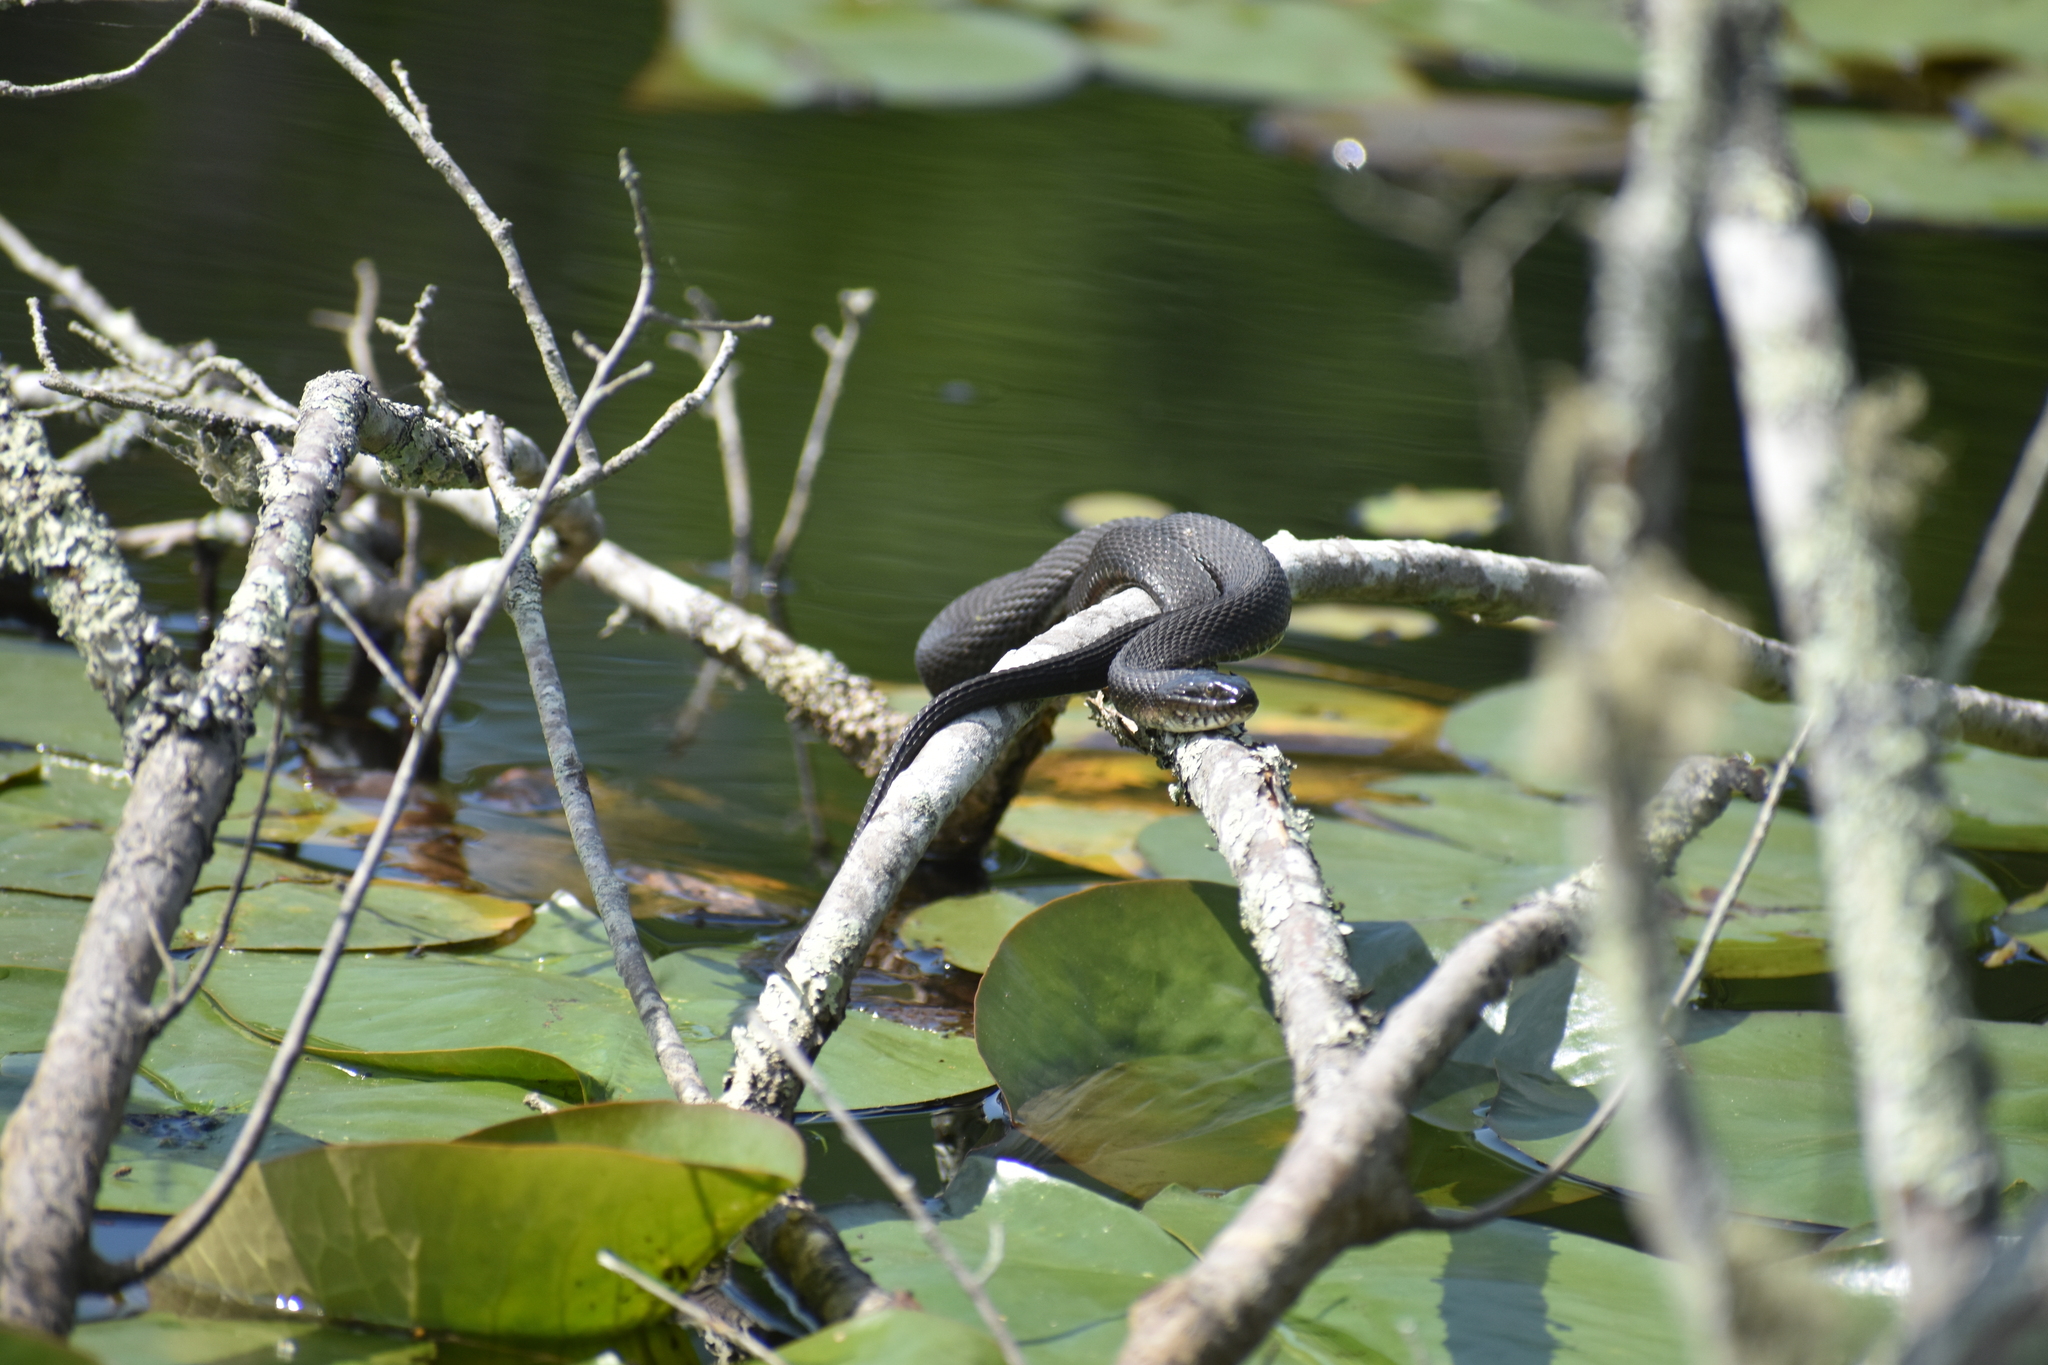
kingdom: Animalia
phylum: Chordata
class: Squamata
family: Colubridae
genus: Nerodia
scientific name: Nerodia sipedon
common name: Northern water snake
